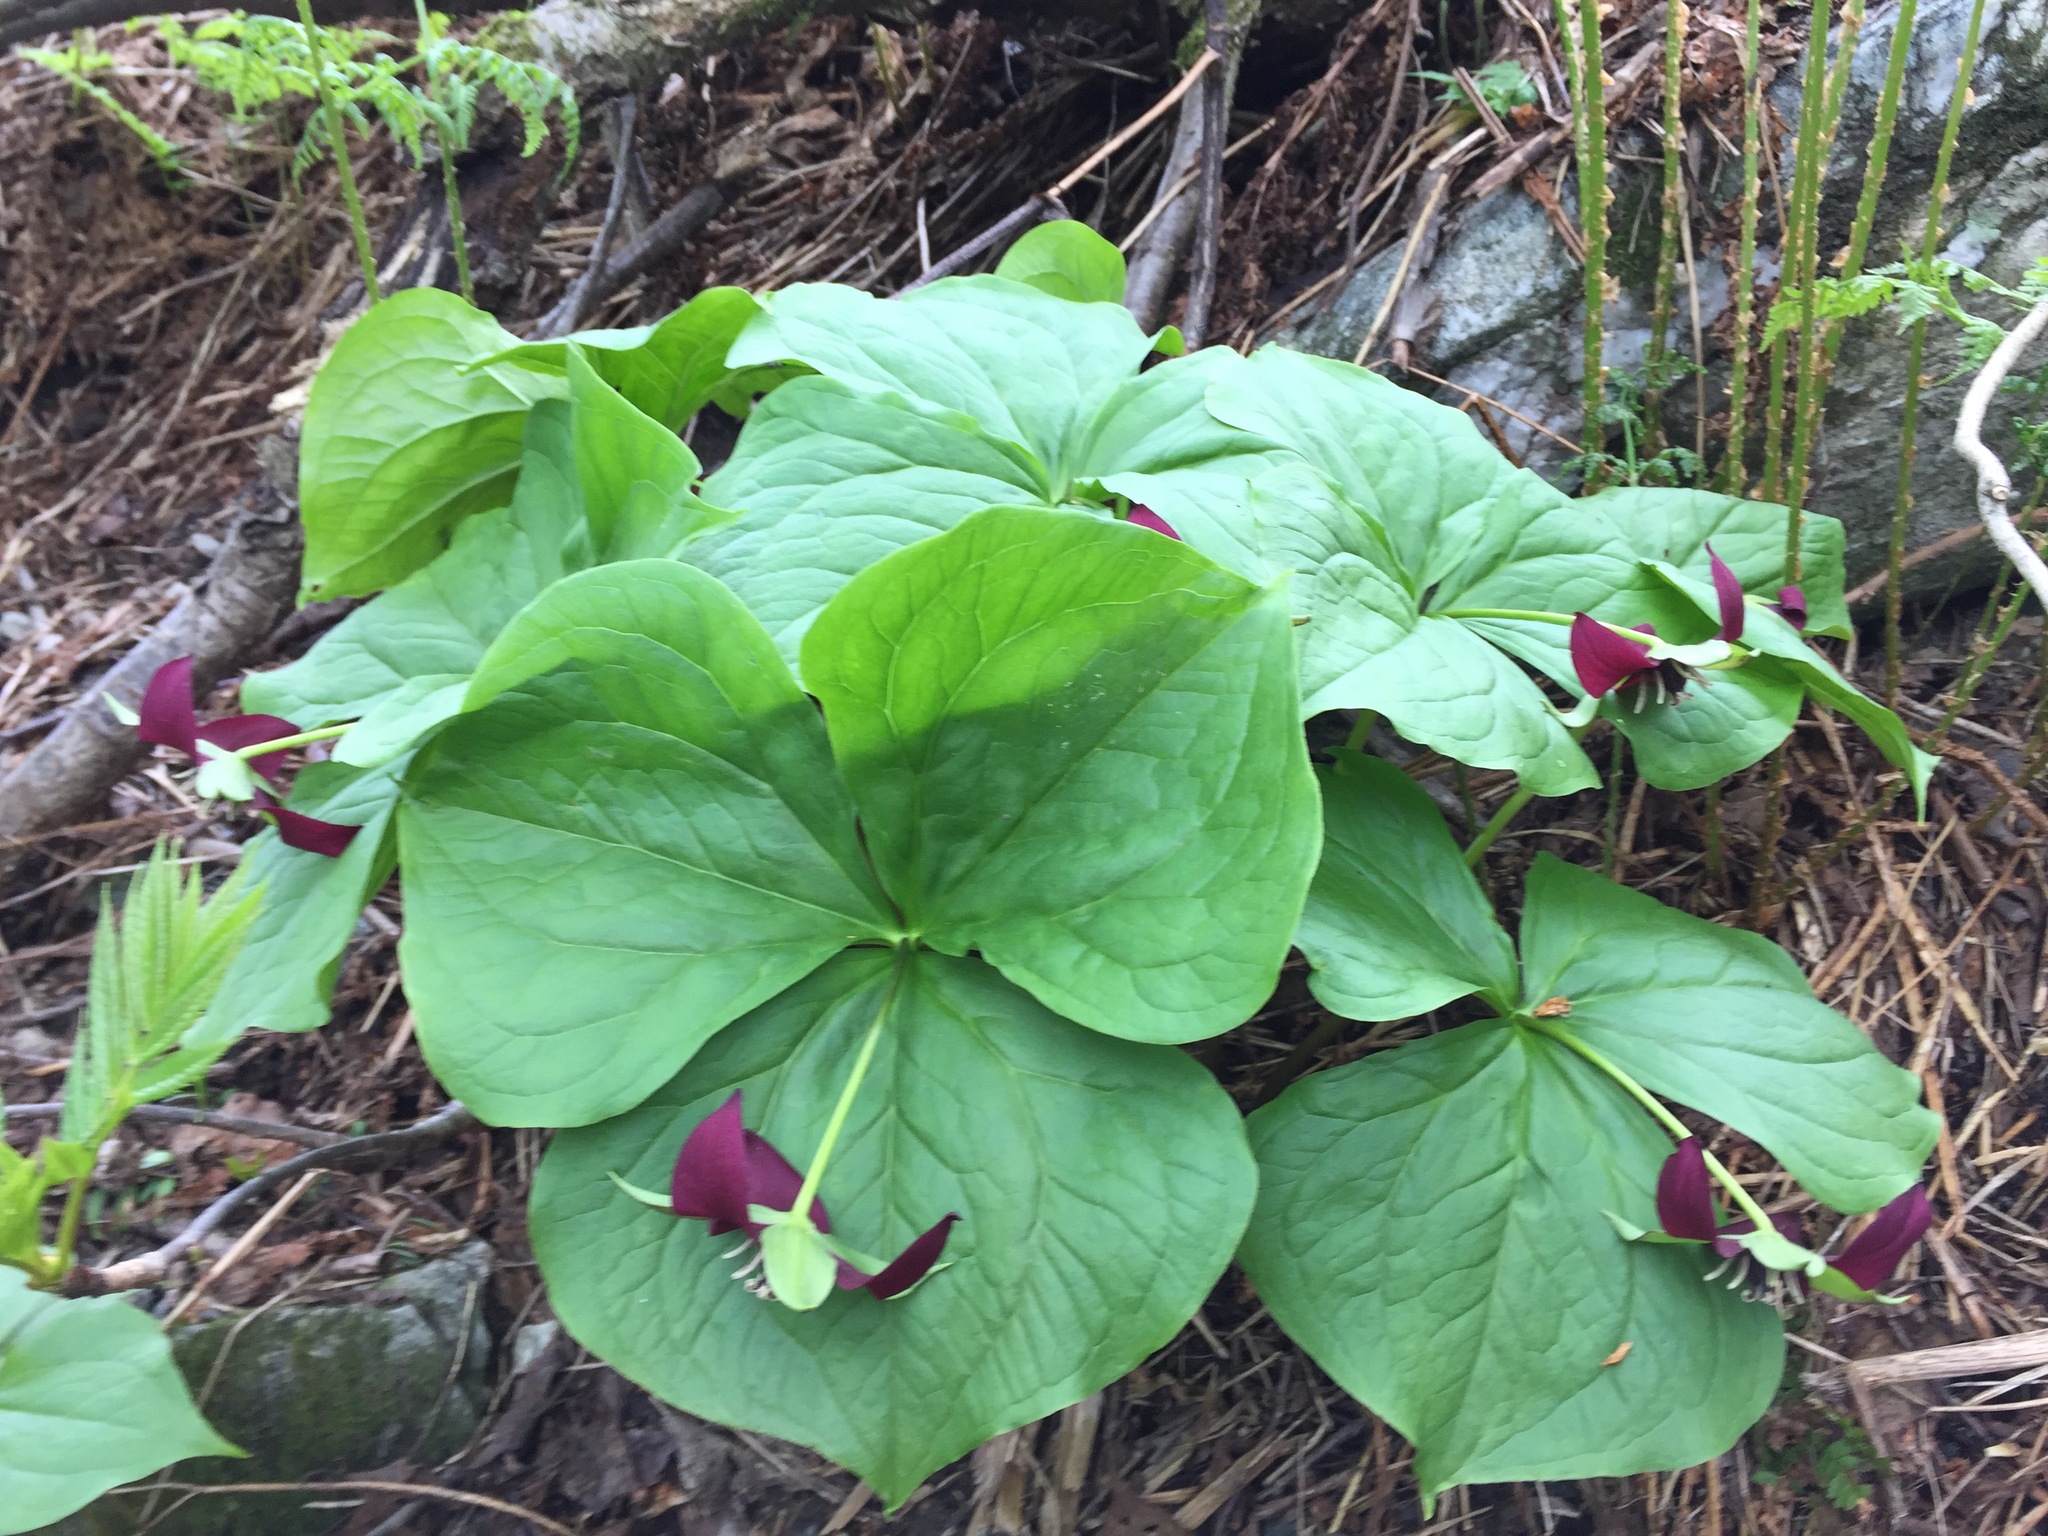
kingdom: Plantae
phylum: Tracheophyta
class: Liliopsida
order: Liliales
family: Melanthiaceae
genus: Trillium
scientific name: Trillium erectum
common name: Purple trillium
